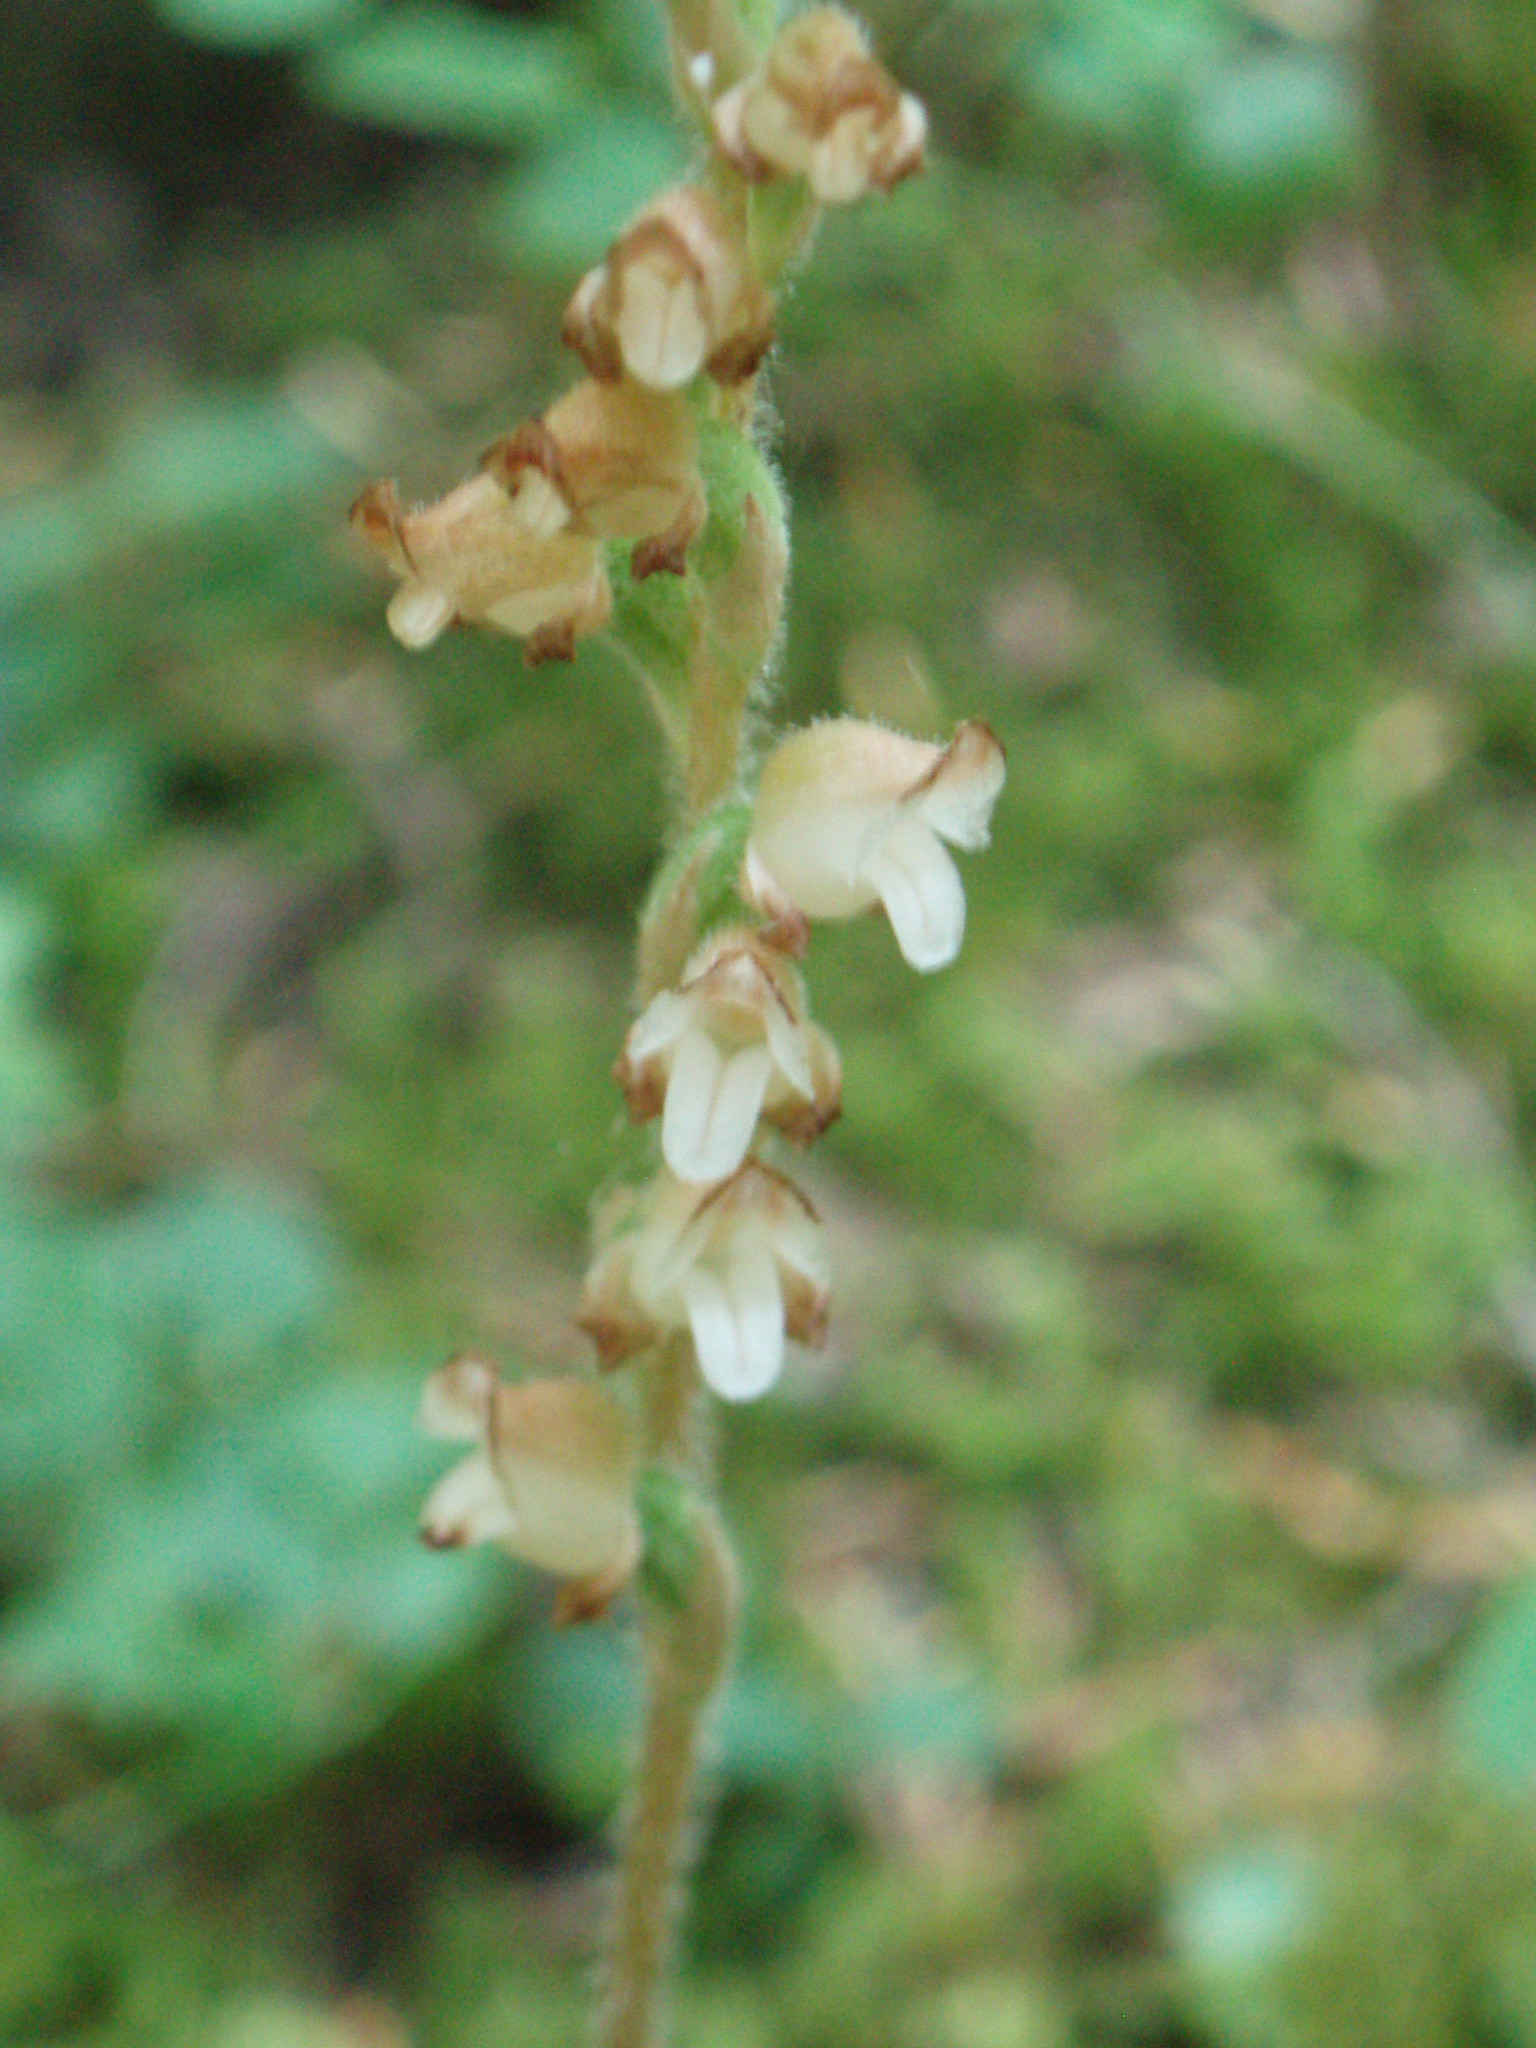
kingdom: Plantae
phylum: Tracheophyta
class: Liliopsida
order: Asparagales
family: Orchidaceae
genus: Goodyera
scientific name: Goodyera oblongifolia
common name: Giant rattlesnake-plantain
